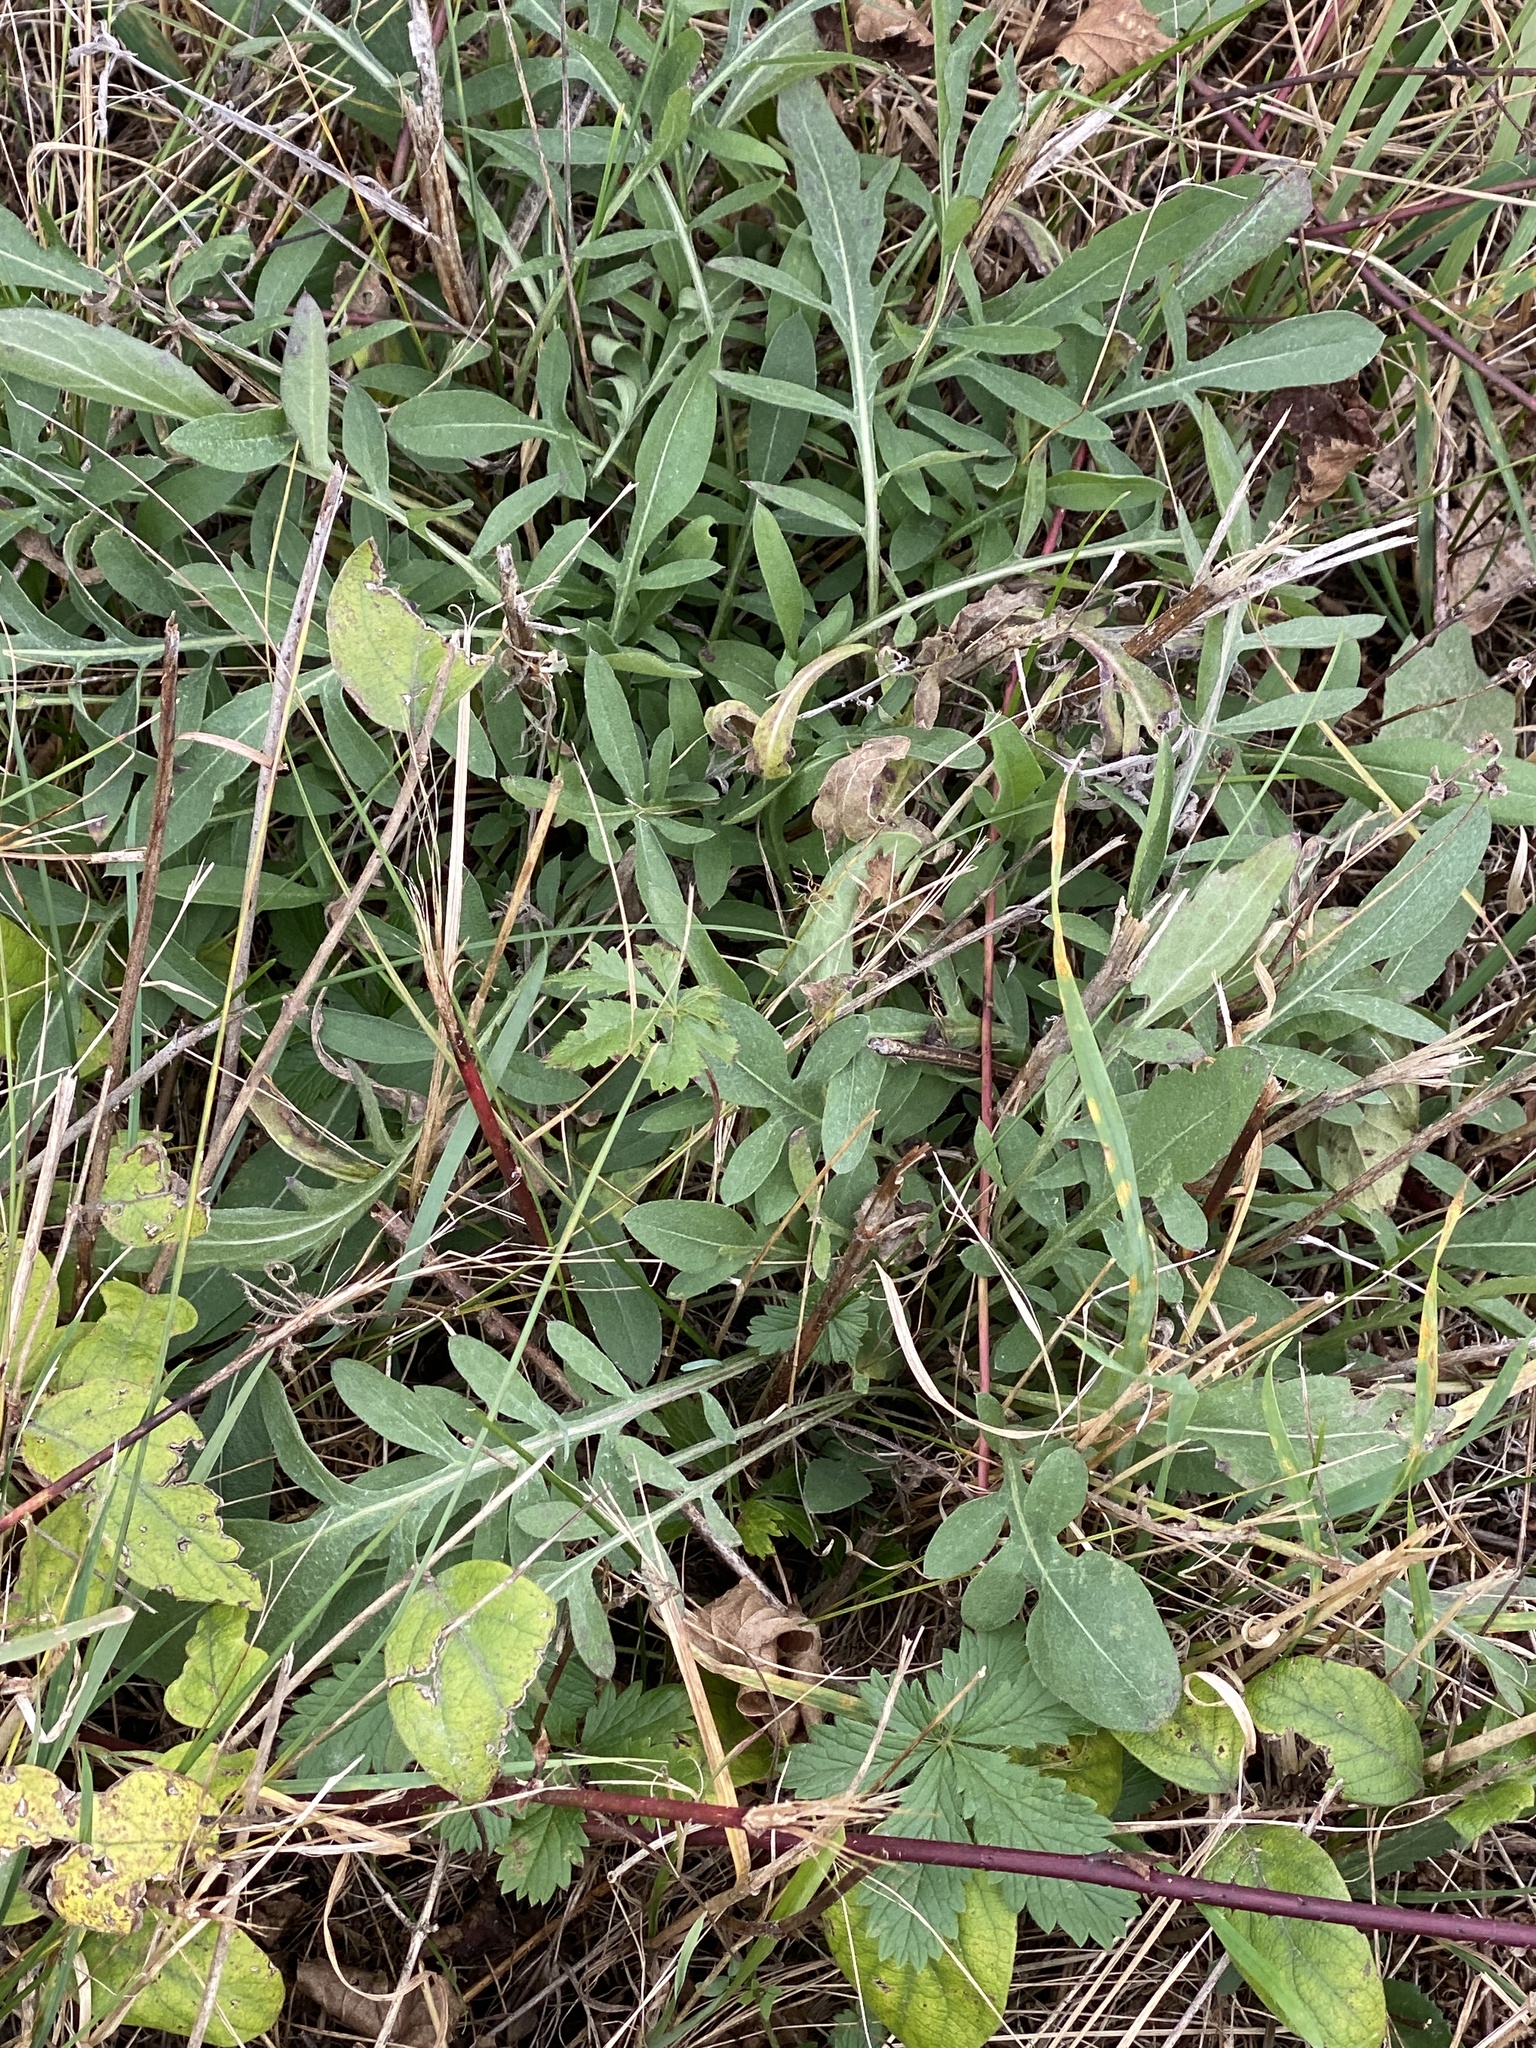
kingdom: Plantae
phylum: Tracheophyta
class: Magnoliopsida
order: Asterales
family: Asteraceae
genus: Centaurea
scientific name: Centaurea stoebe
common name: Spotted knapweed
